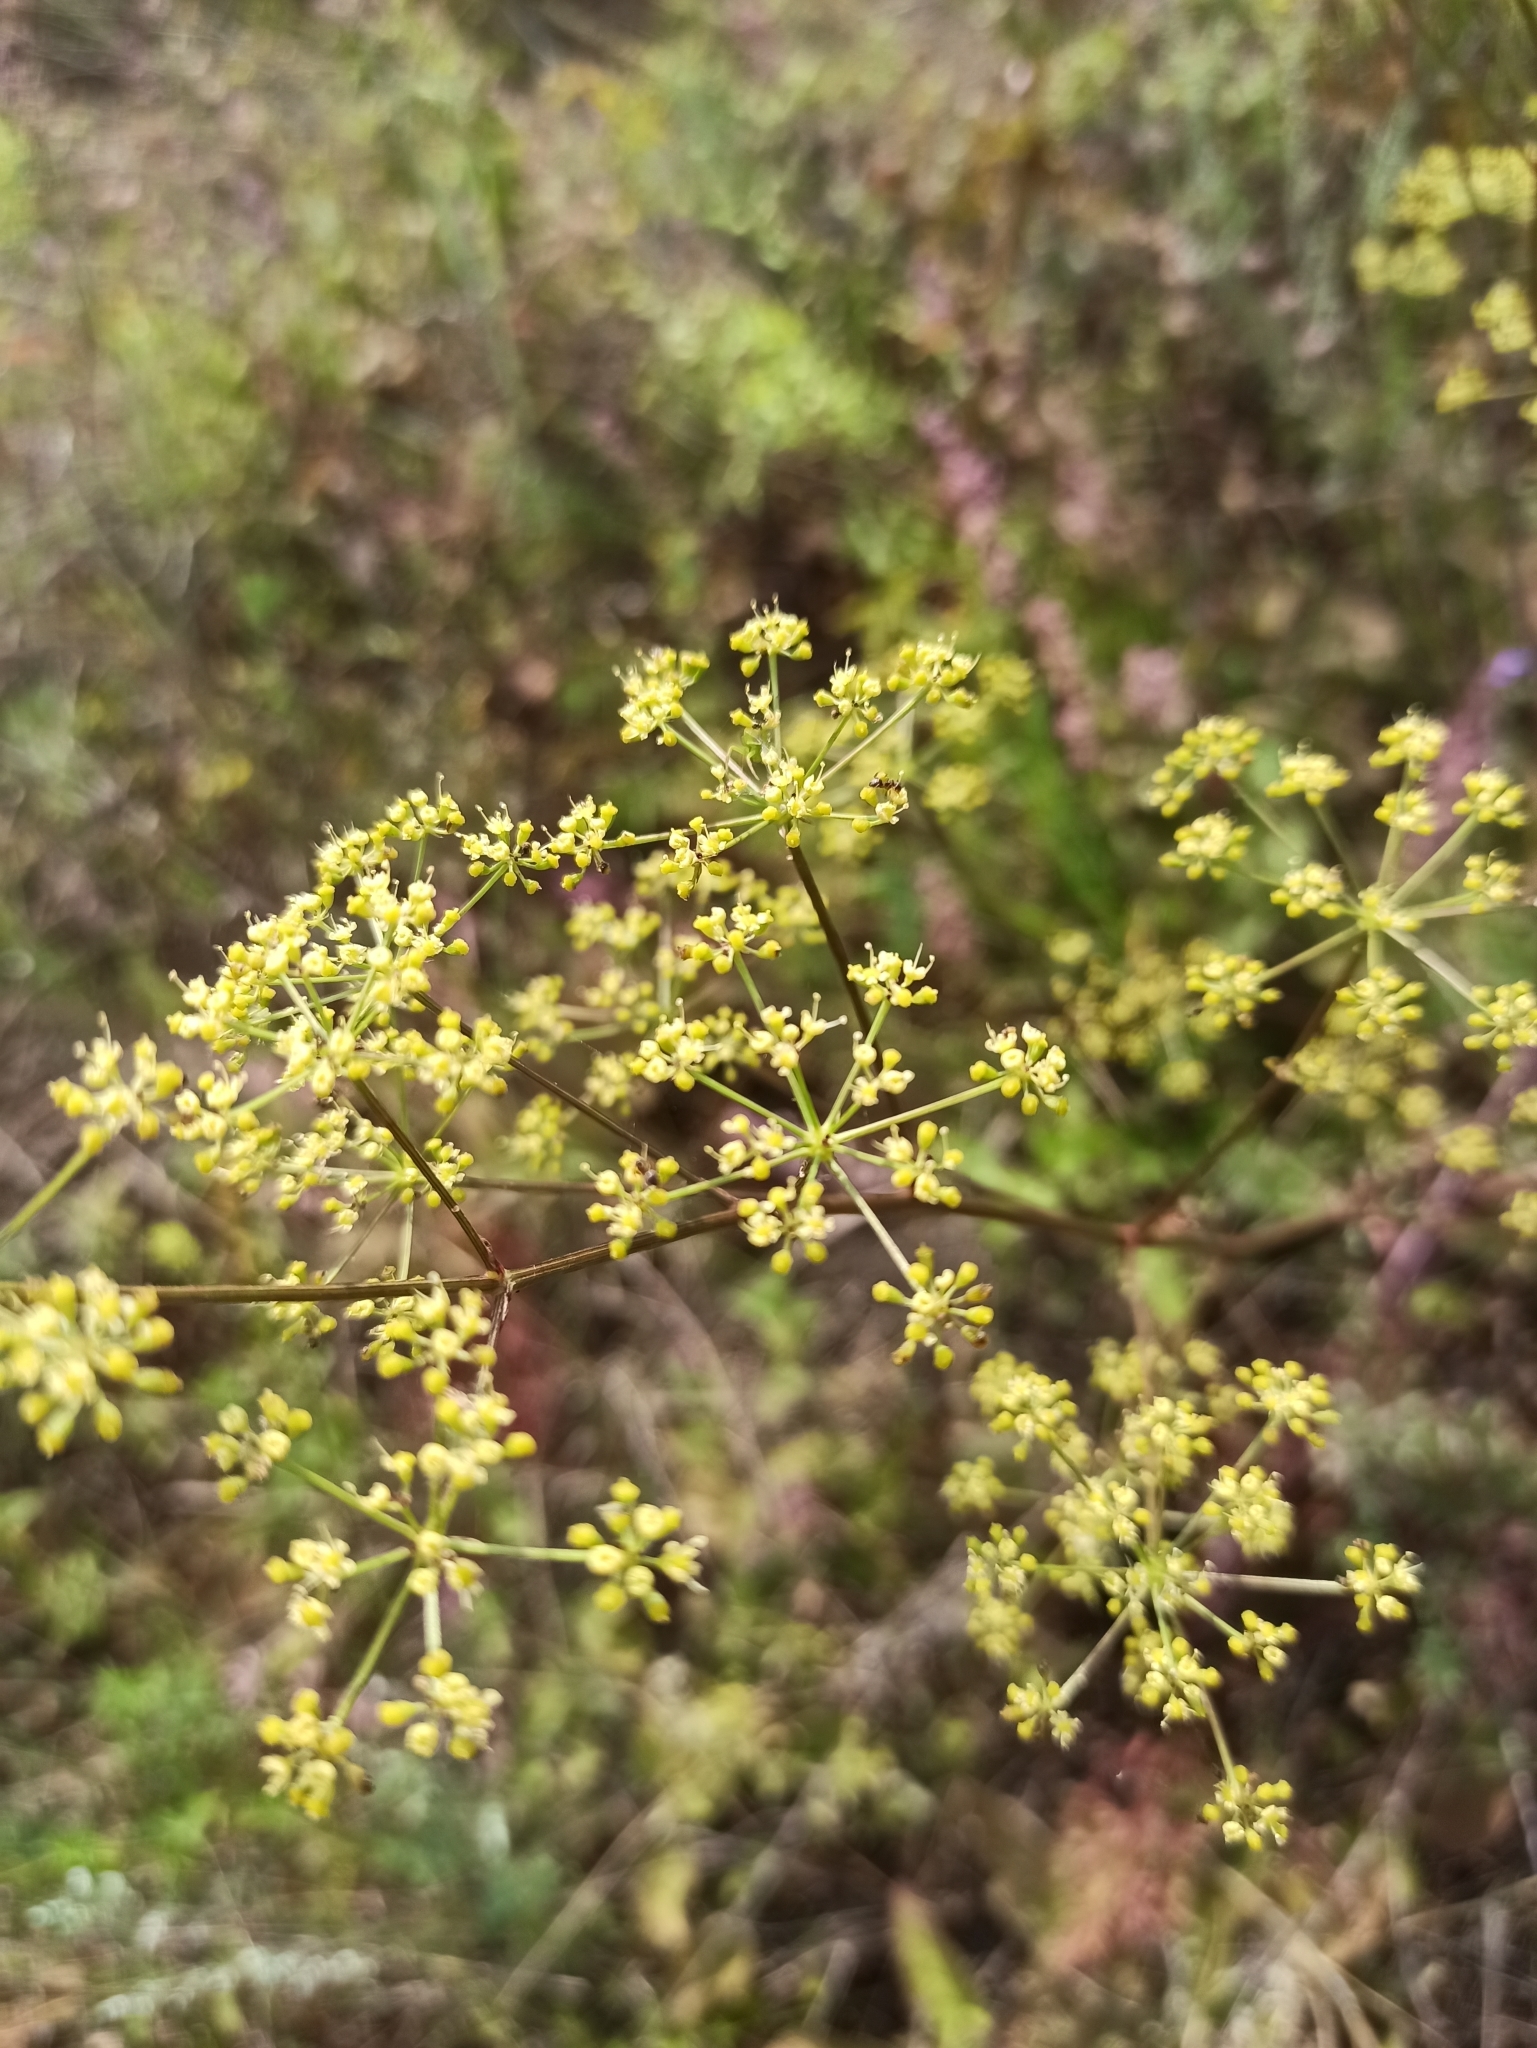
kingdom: Plantae
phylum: Tracheophyta
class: Magnoliopsida
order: Apiales
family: Apiaceae
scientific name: Apiaceae
